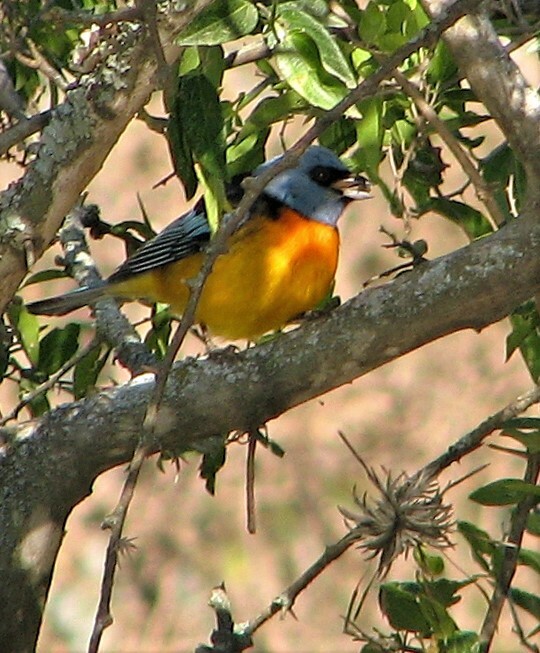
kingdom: Animalia
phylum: Chordata
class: Aves
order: Passeriformes
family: Thraupidae
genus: Rauenia
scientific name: Rauenia bonariensis
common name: Blue-and-yellow tanager
